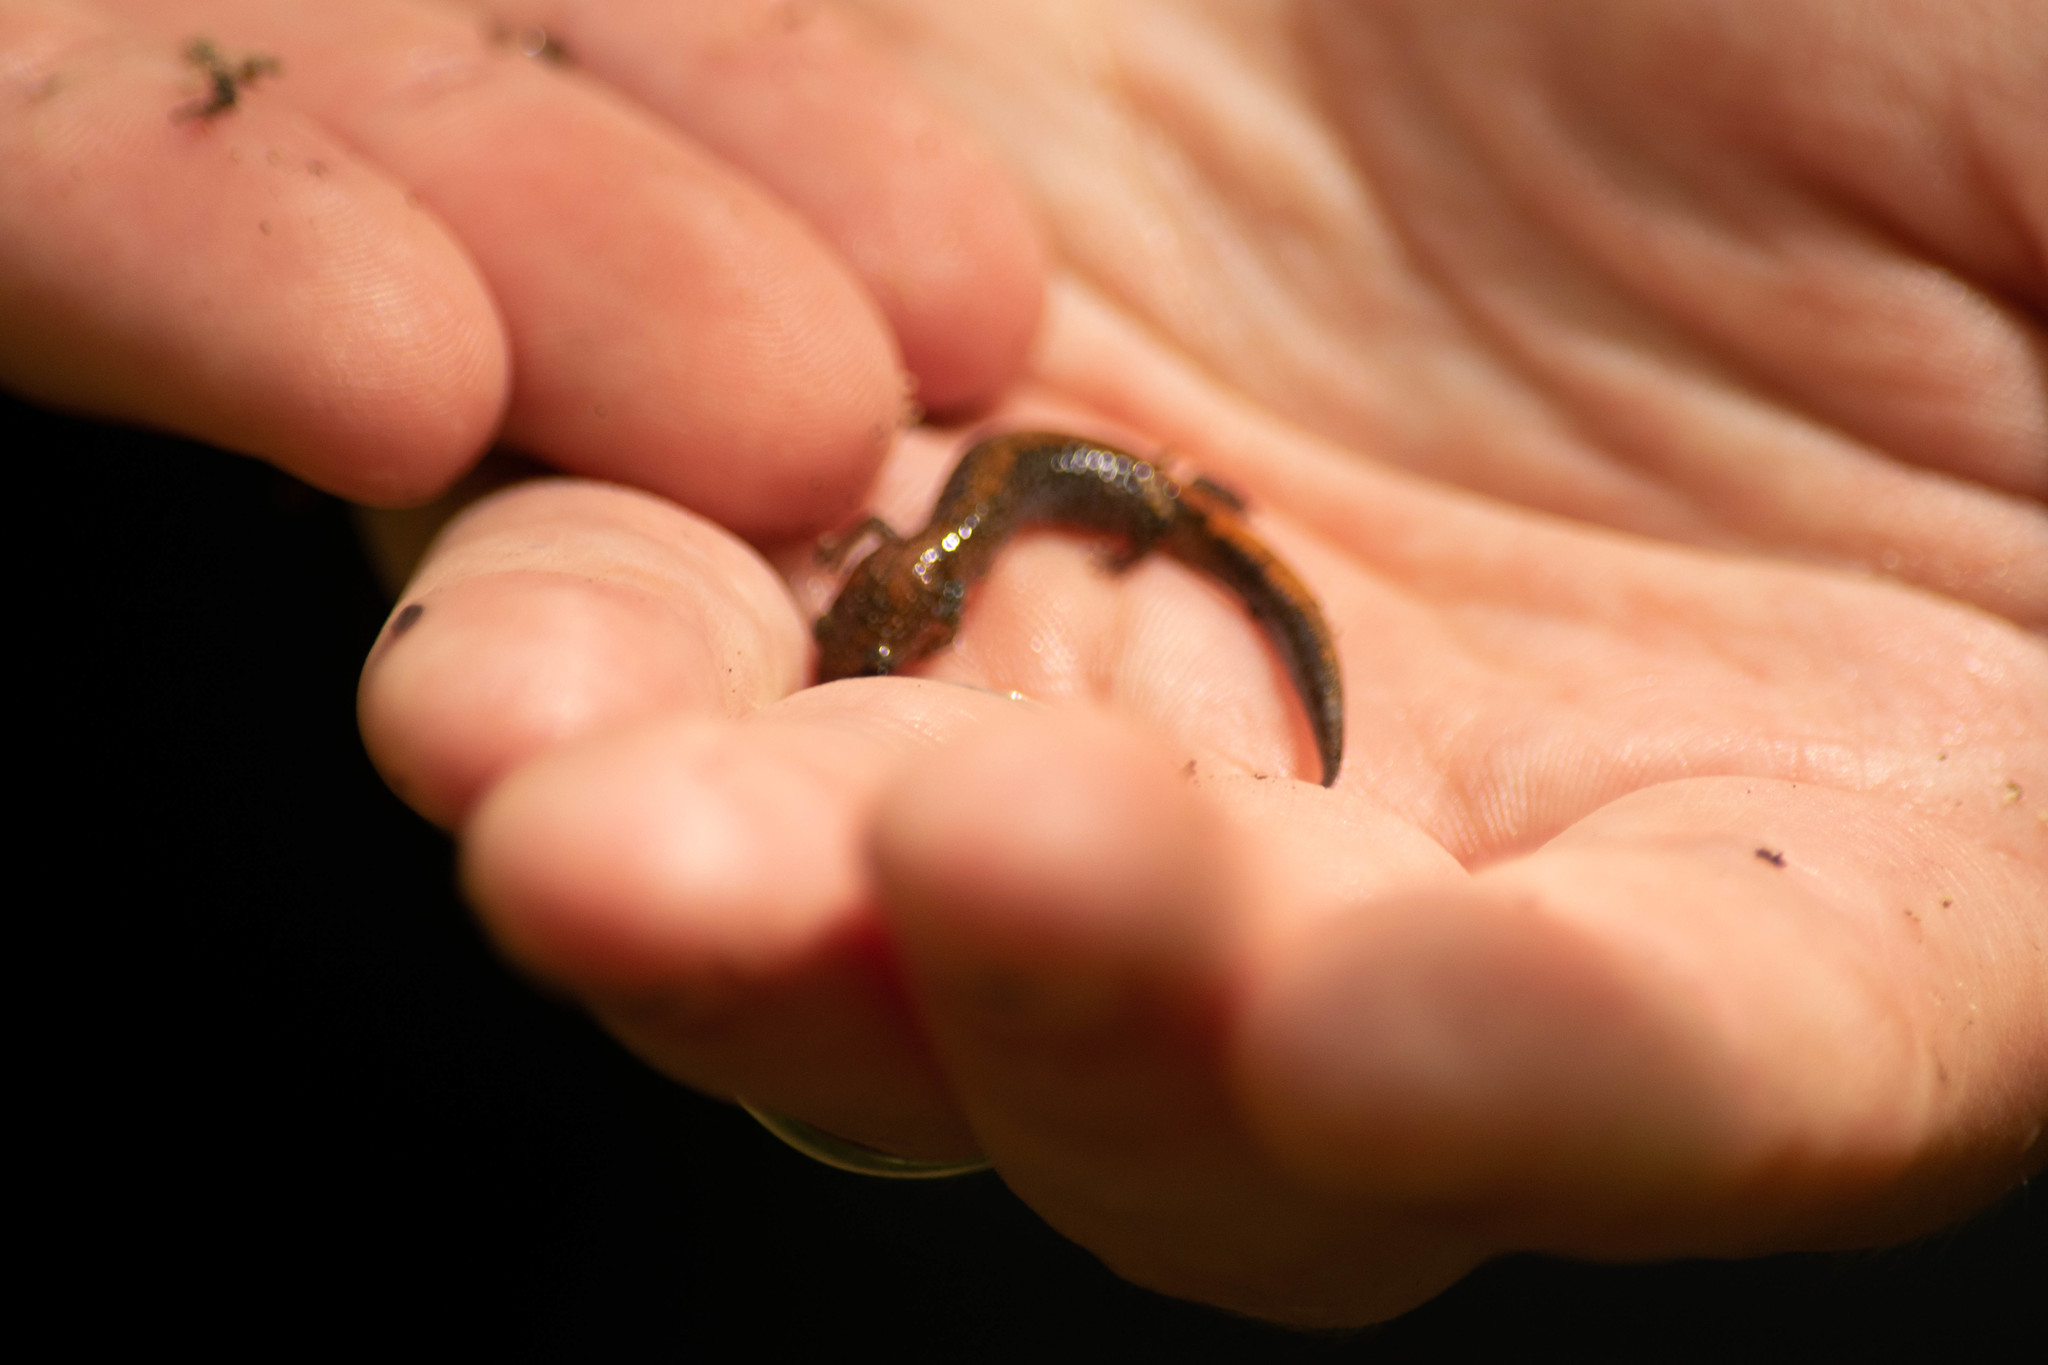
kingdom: Animalia
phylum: Chordata
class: Amphibia
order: Caudata
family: Plethodontidae
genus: Plethodon
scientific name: Plethodon cinereus
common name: Redback salamander
